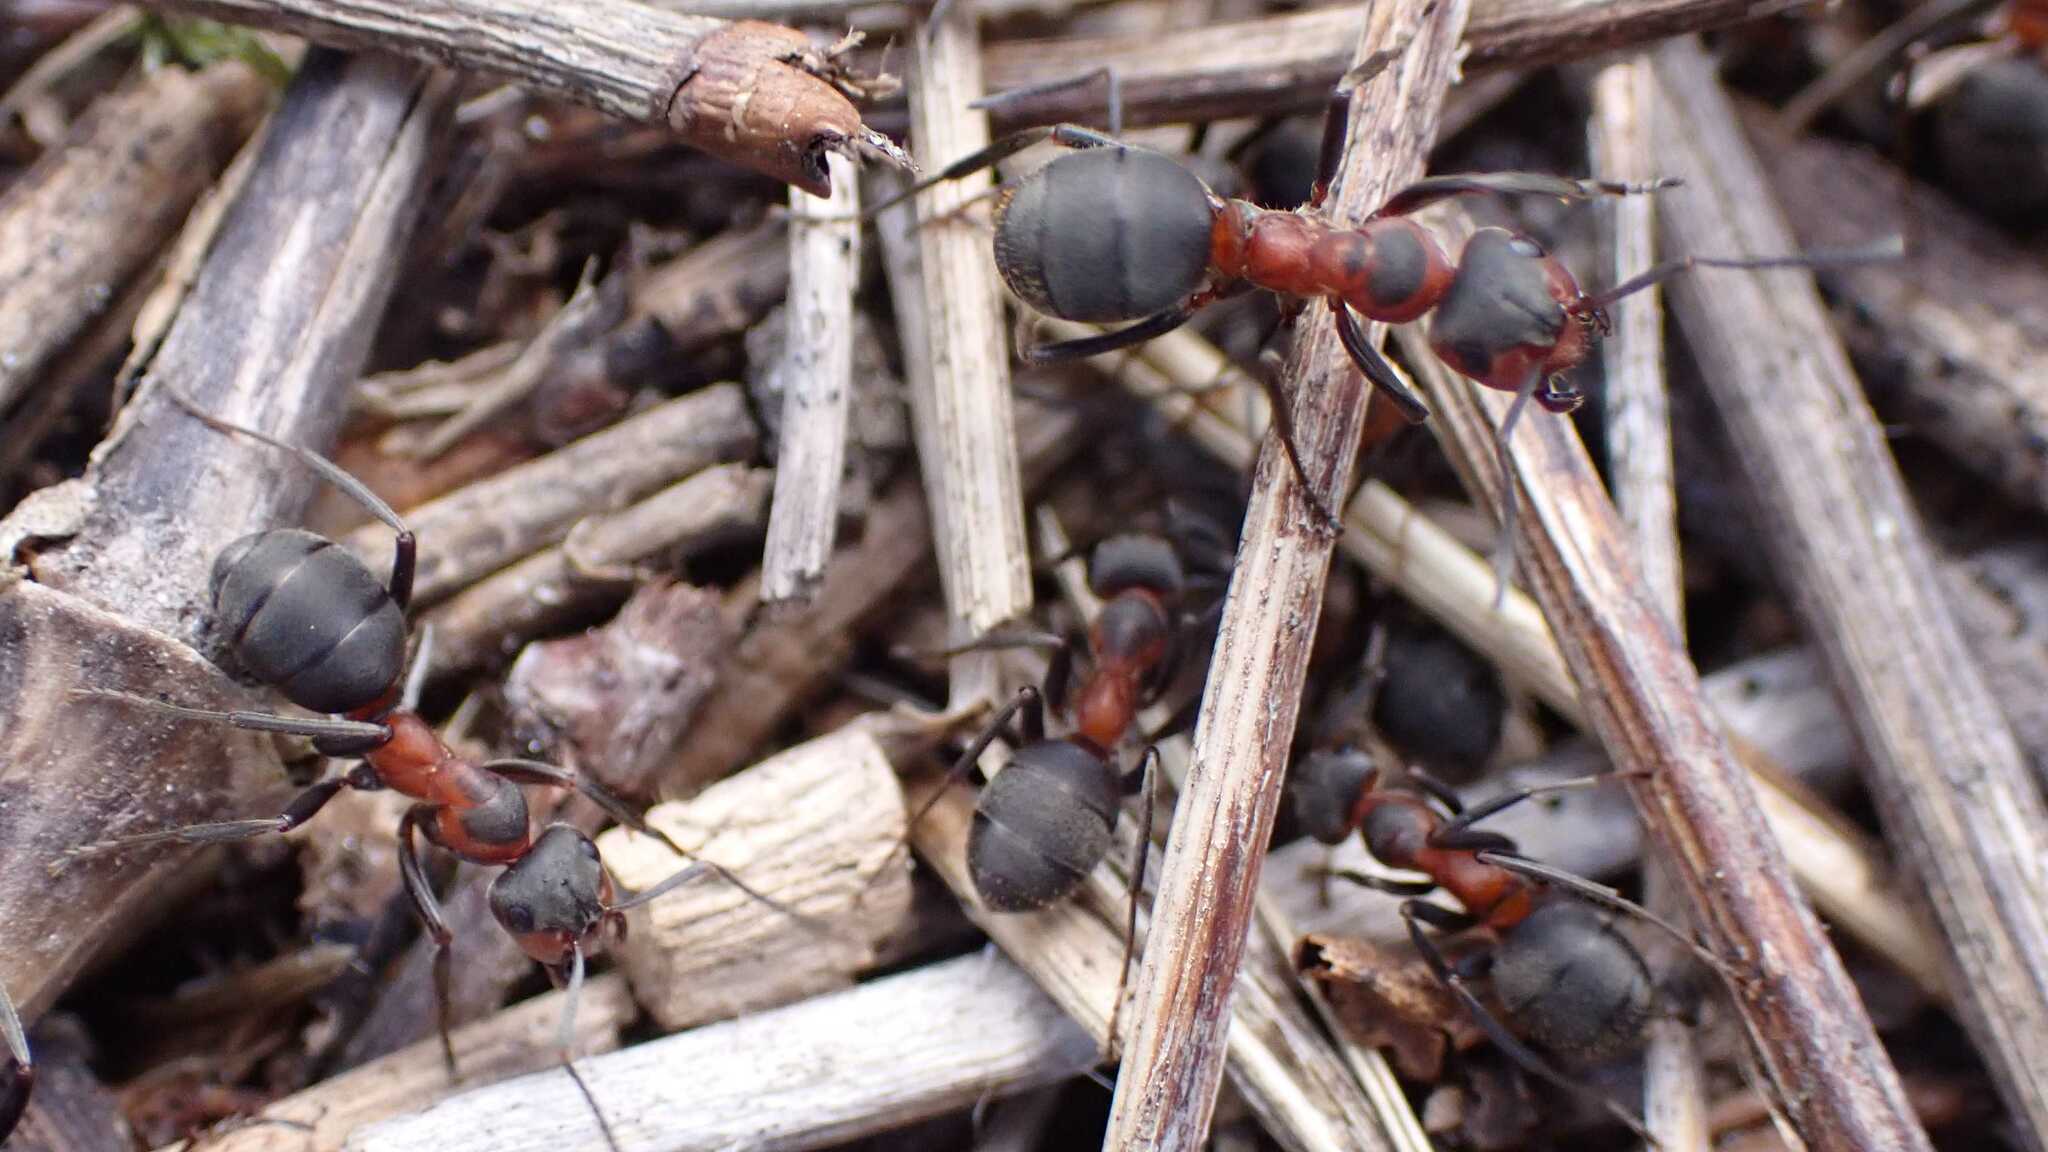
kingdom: Animalia
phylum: Arthropoda
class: Insecta
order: Hymenoptera
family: Formicidae
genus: Formica
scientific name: Formica pratensis
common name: European red wood ant
